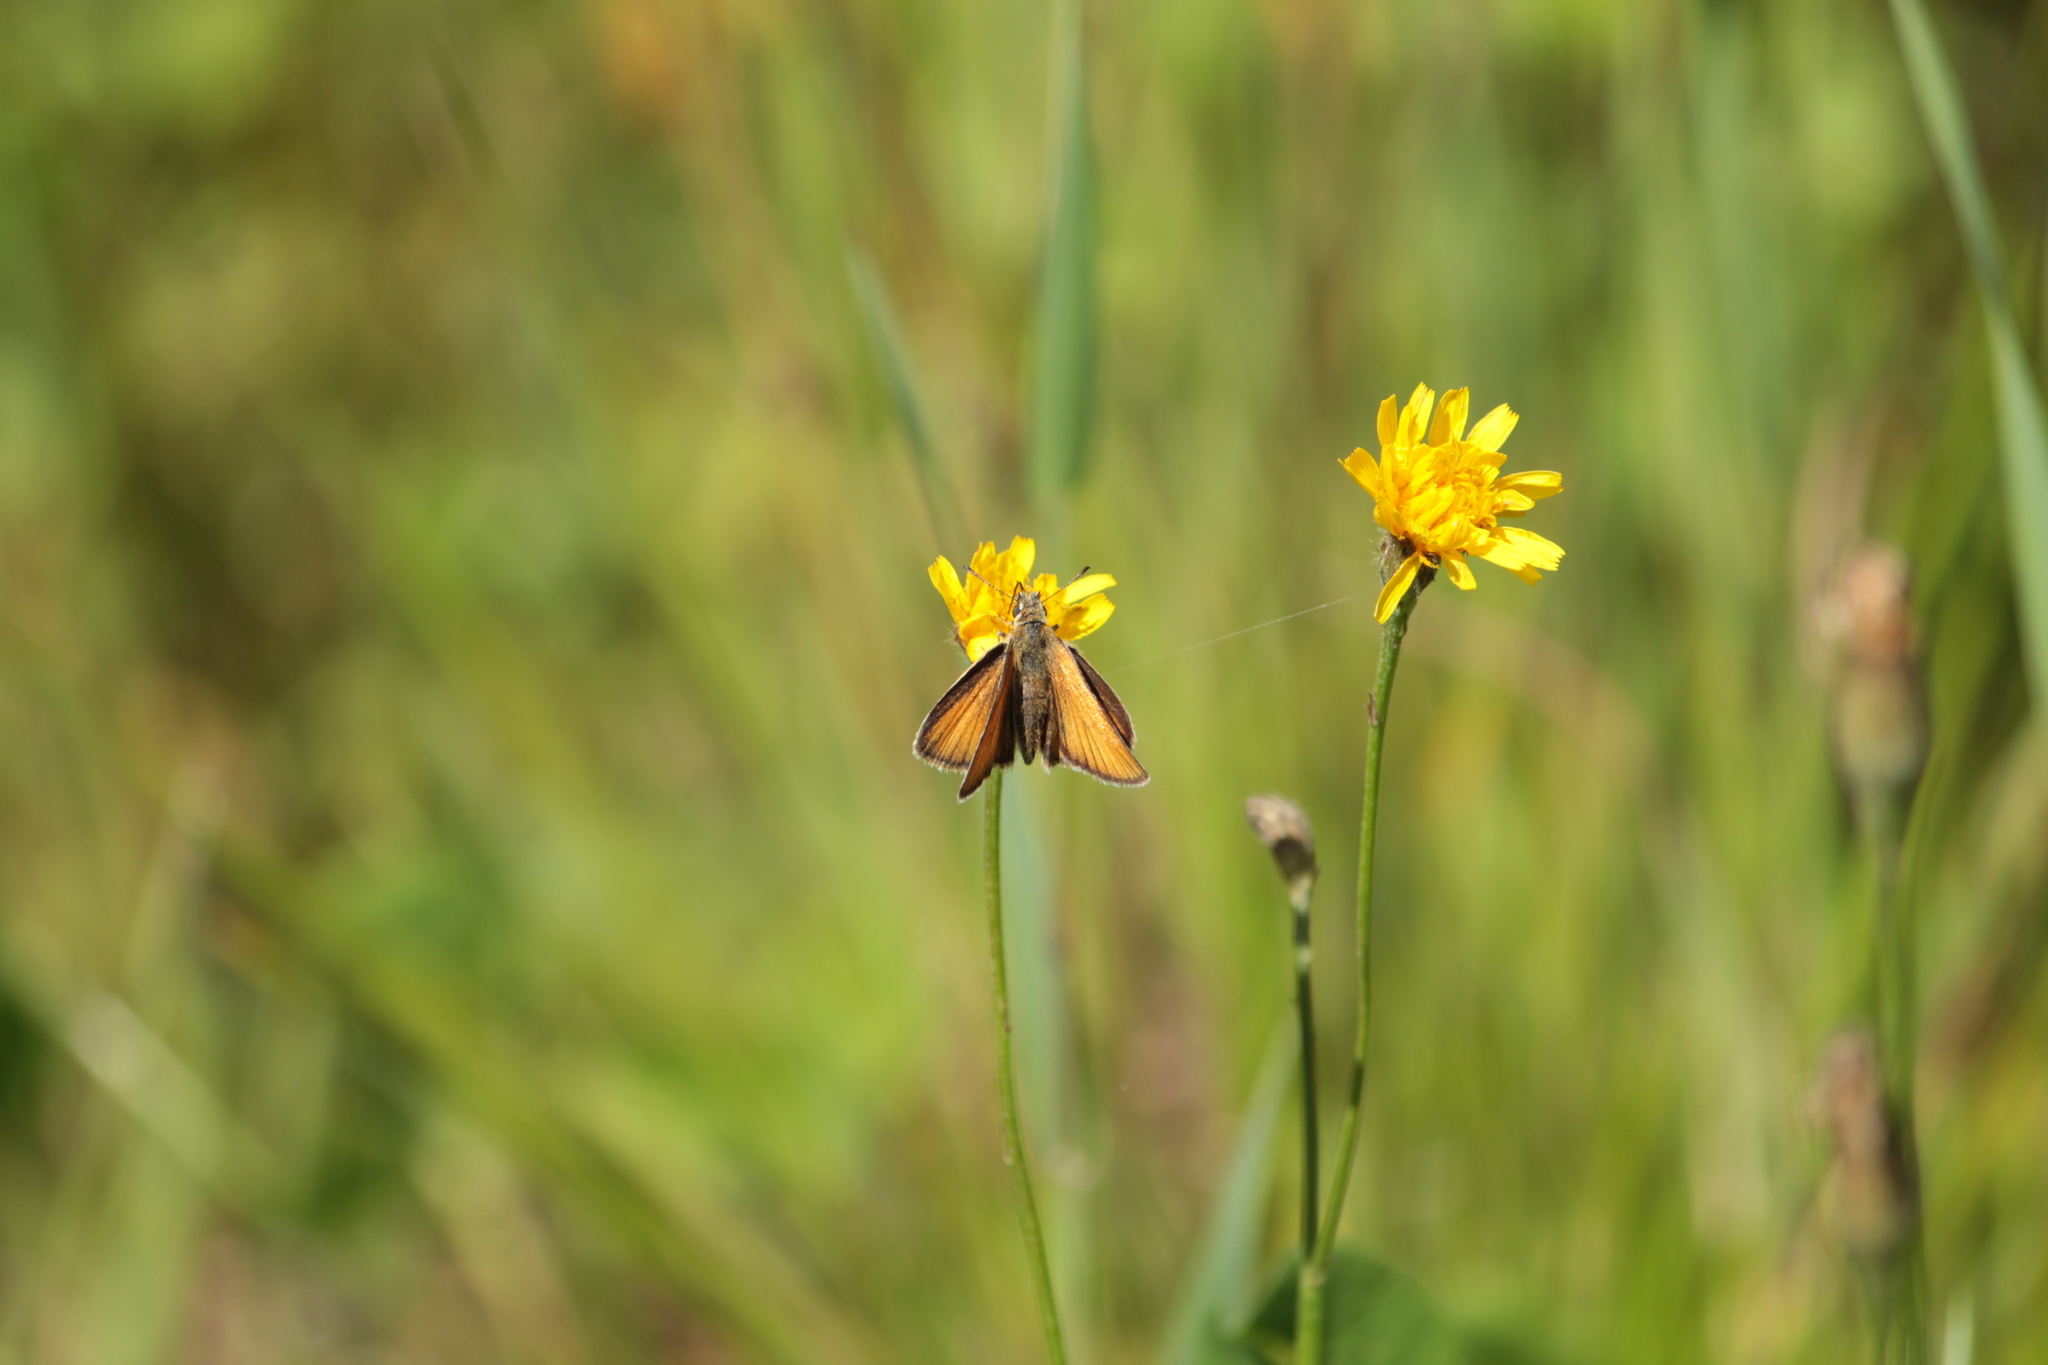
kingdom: Animalia
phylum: Arthropoda
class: Insecta
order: Lepidoptera
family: Hesperiidae
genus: Thymelicus
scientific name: Thymelicus lineola
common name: Essex skipper
